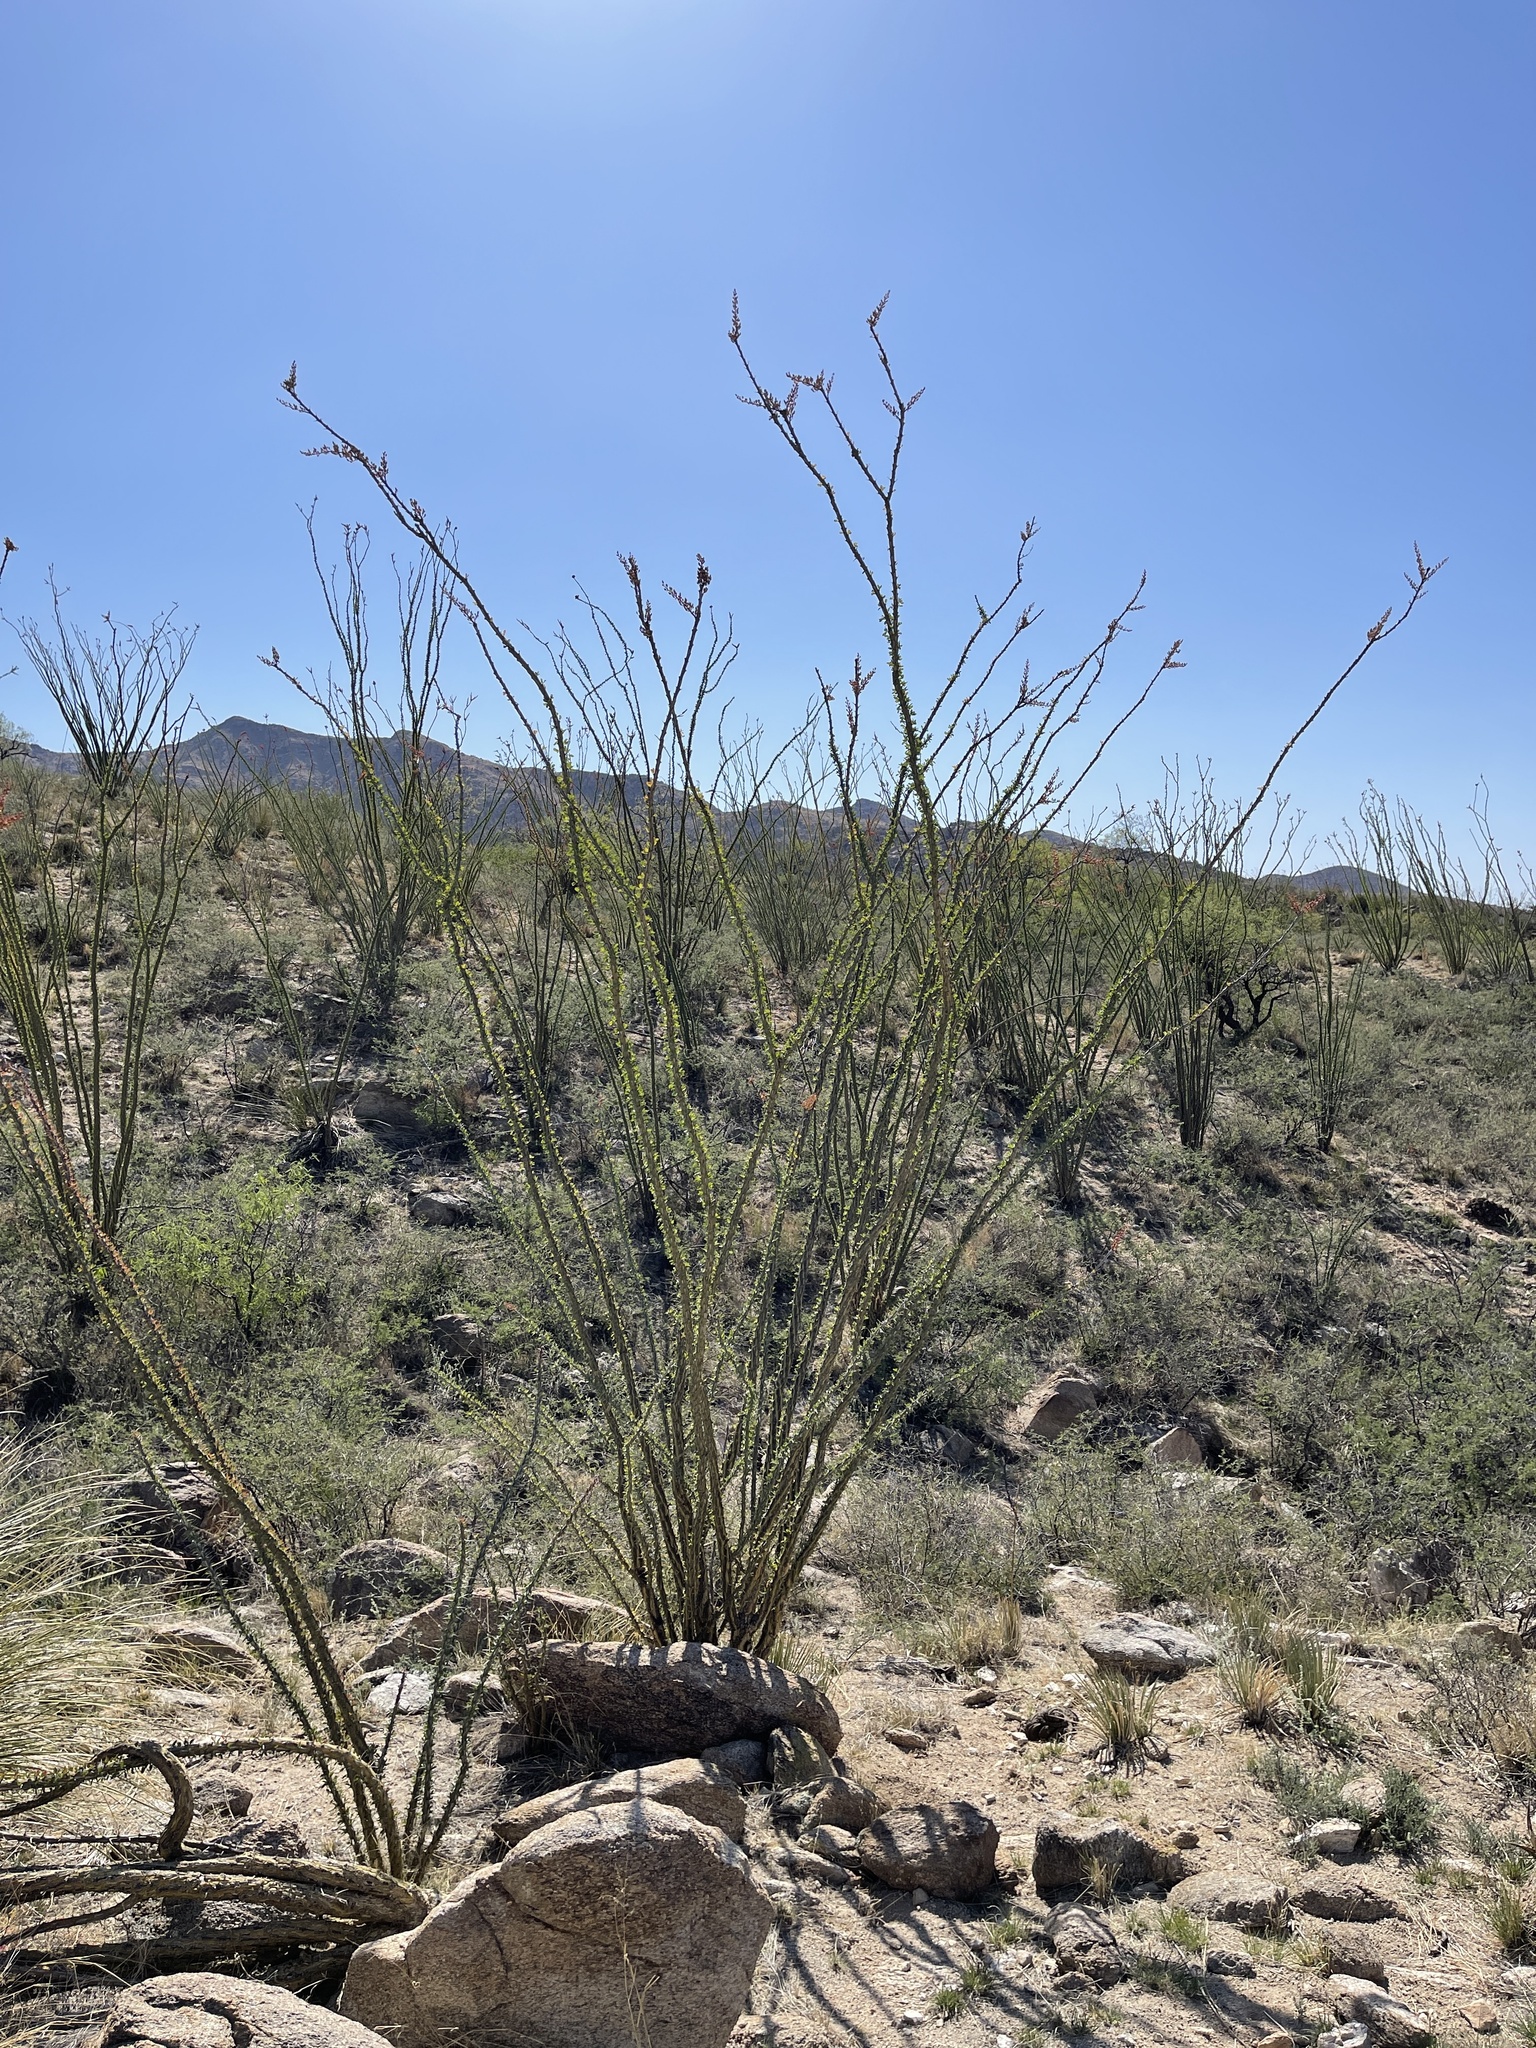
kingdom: Plantae
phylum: Tracheophyta
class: Magnoliopsida
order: Ericales
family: Fouquieriaceae
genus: Fouquieria
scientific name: Fouquieria splendens
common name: Vine-cactus
